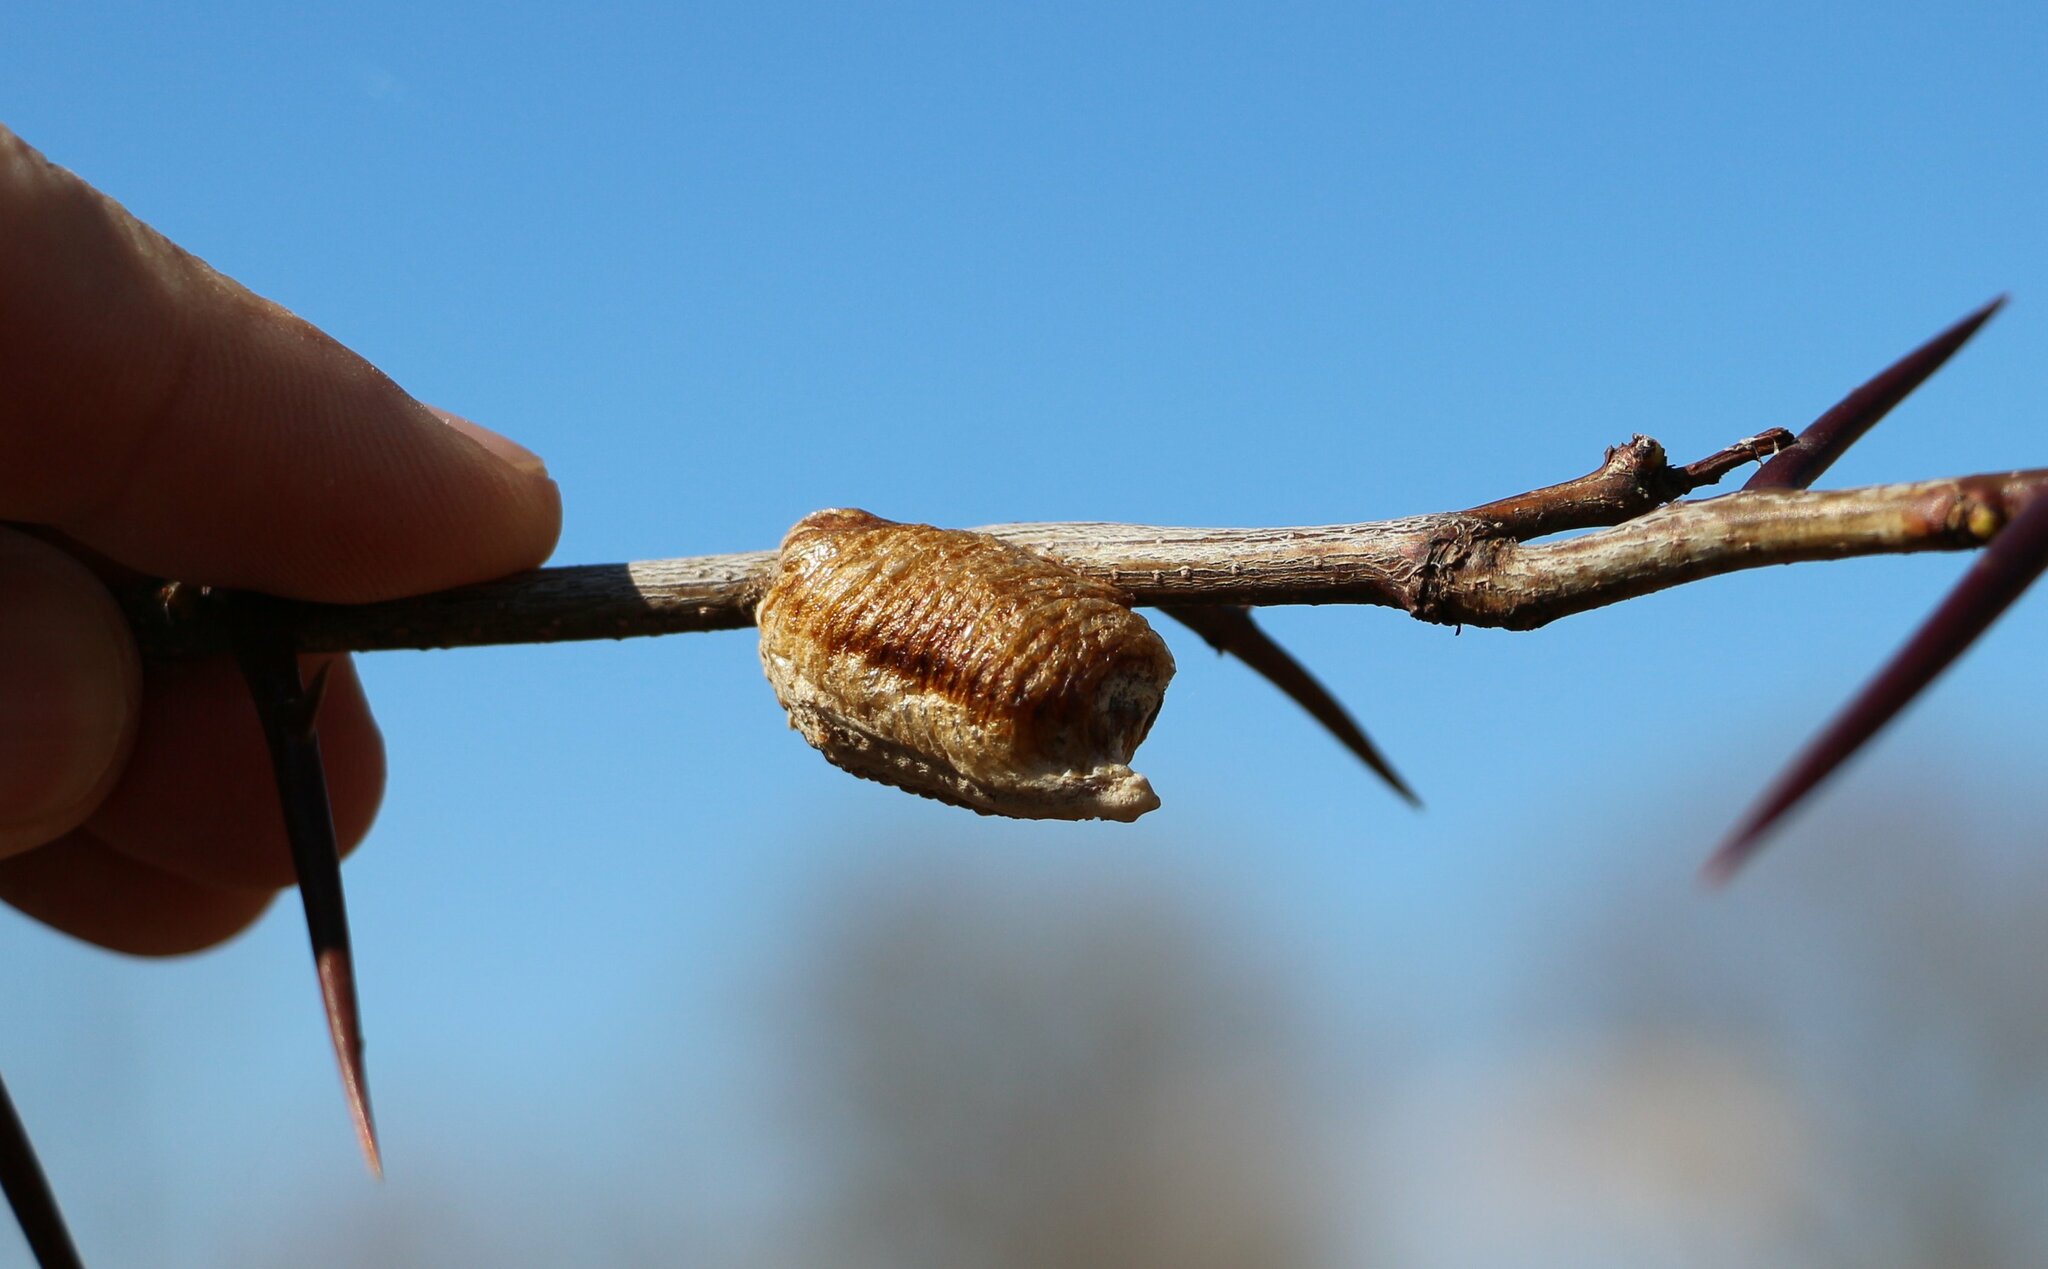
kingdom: Animalia
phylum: Arthropoda
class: Insecta
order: Mantodea
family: Mantidae
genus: Hierodula
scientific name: Hierodula transcaucasica
